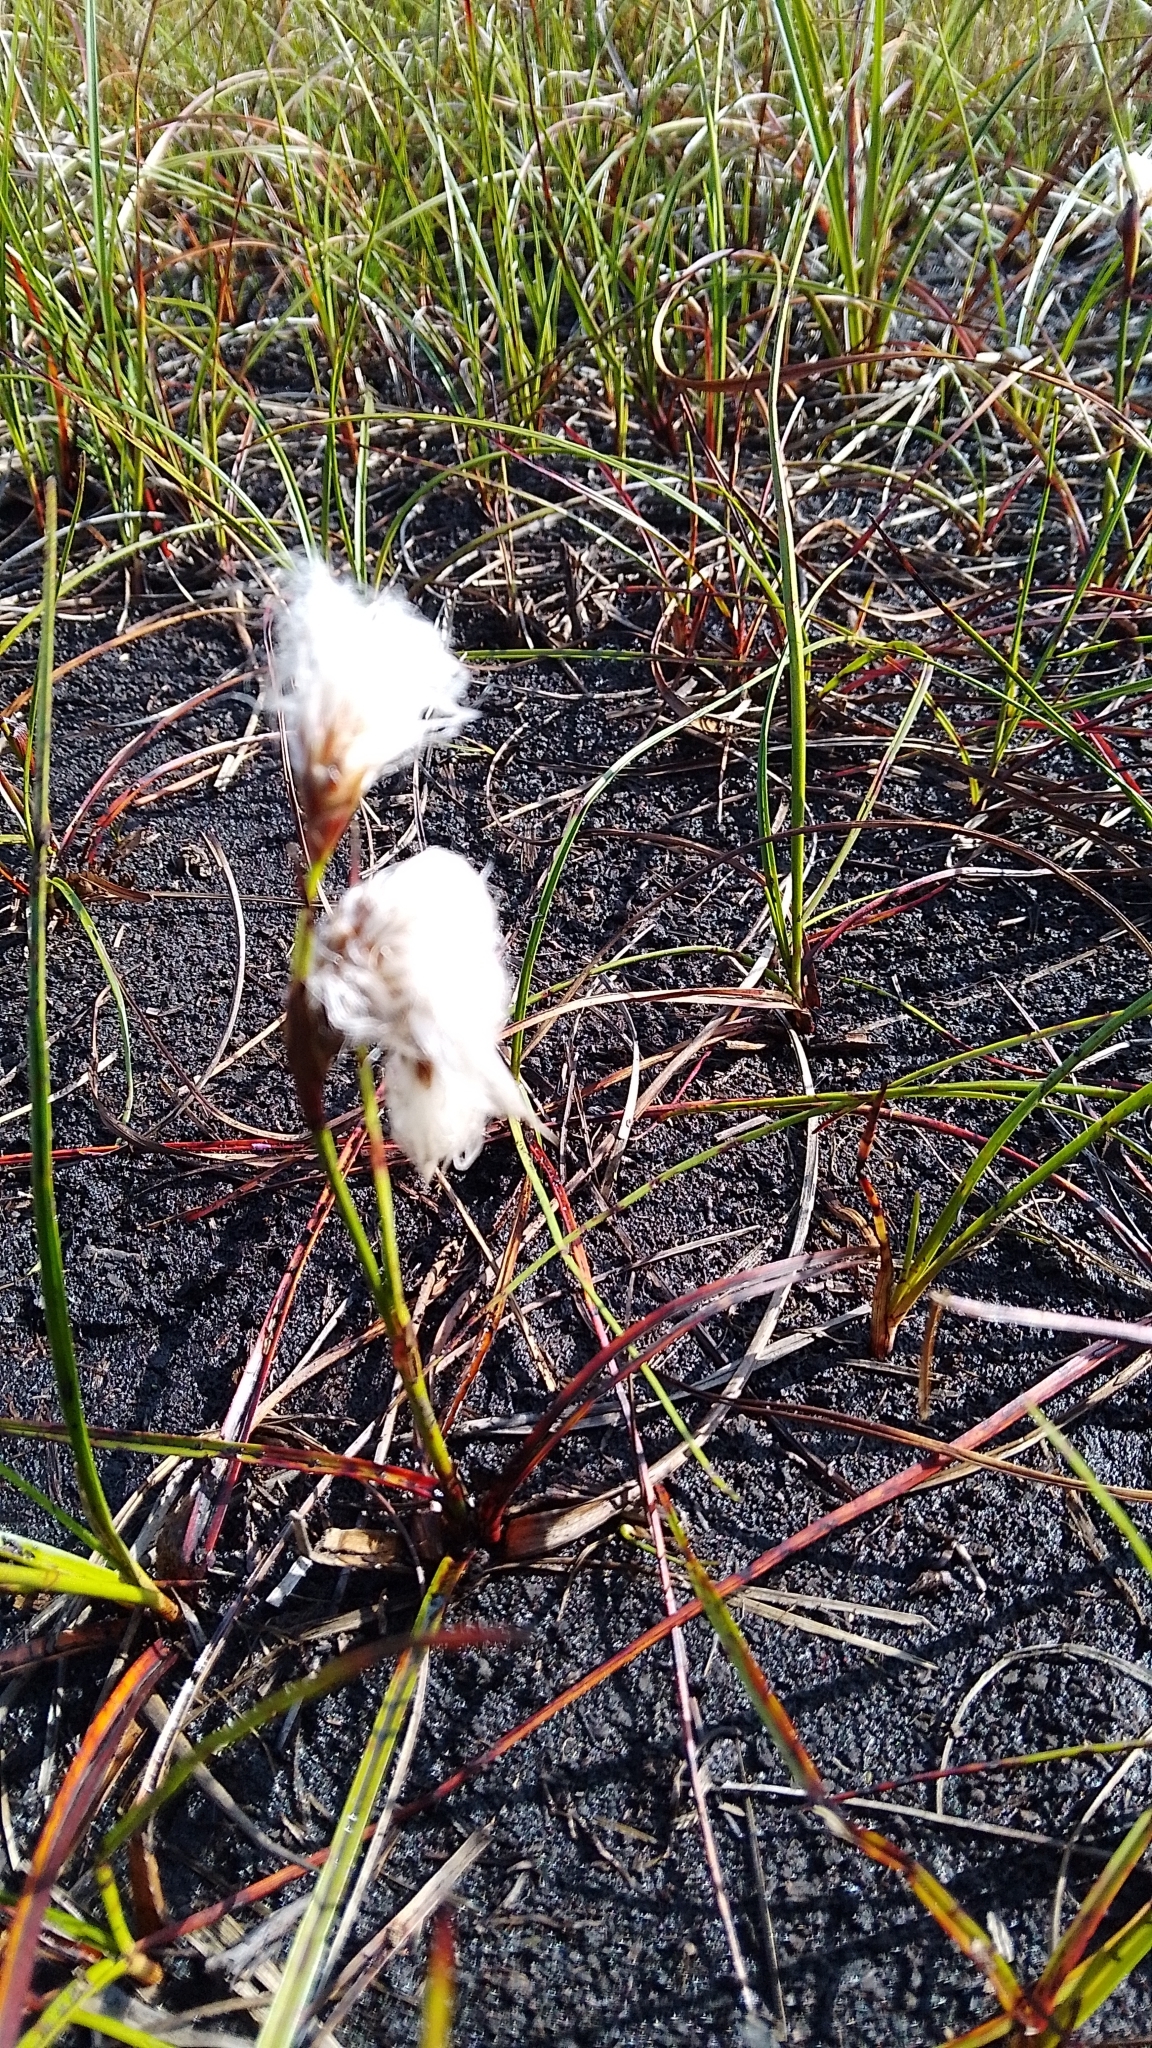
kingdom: Plantae
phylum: Tracheophyta
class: Liliopsida
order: Poales
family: Cyperaceae
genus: Eriophorum
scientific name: Eriophorum angustifolium
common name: Common cottongrass
